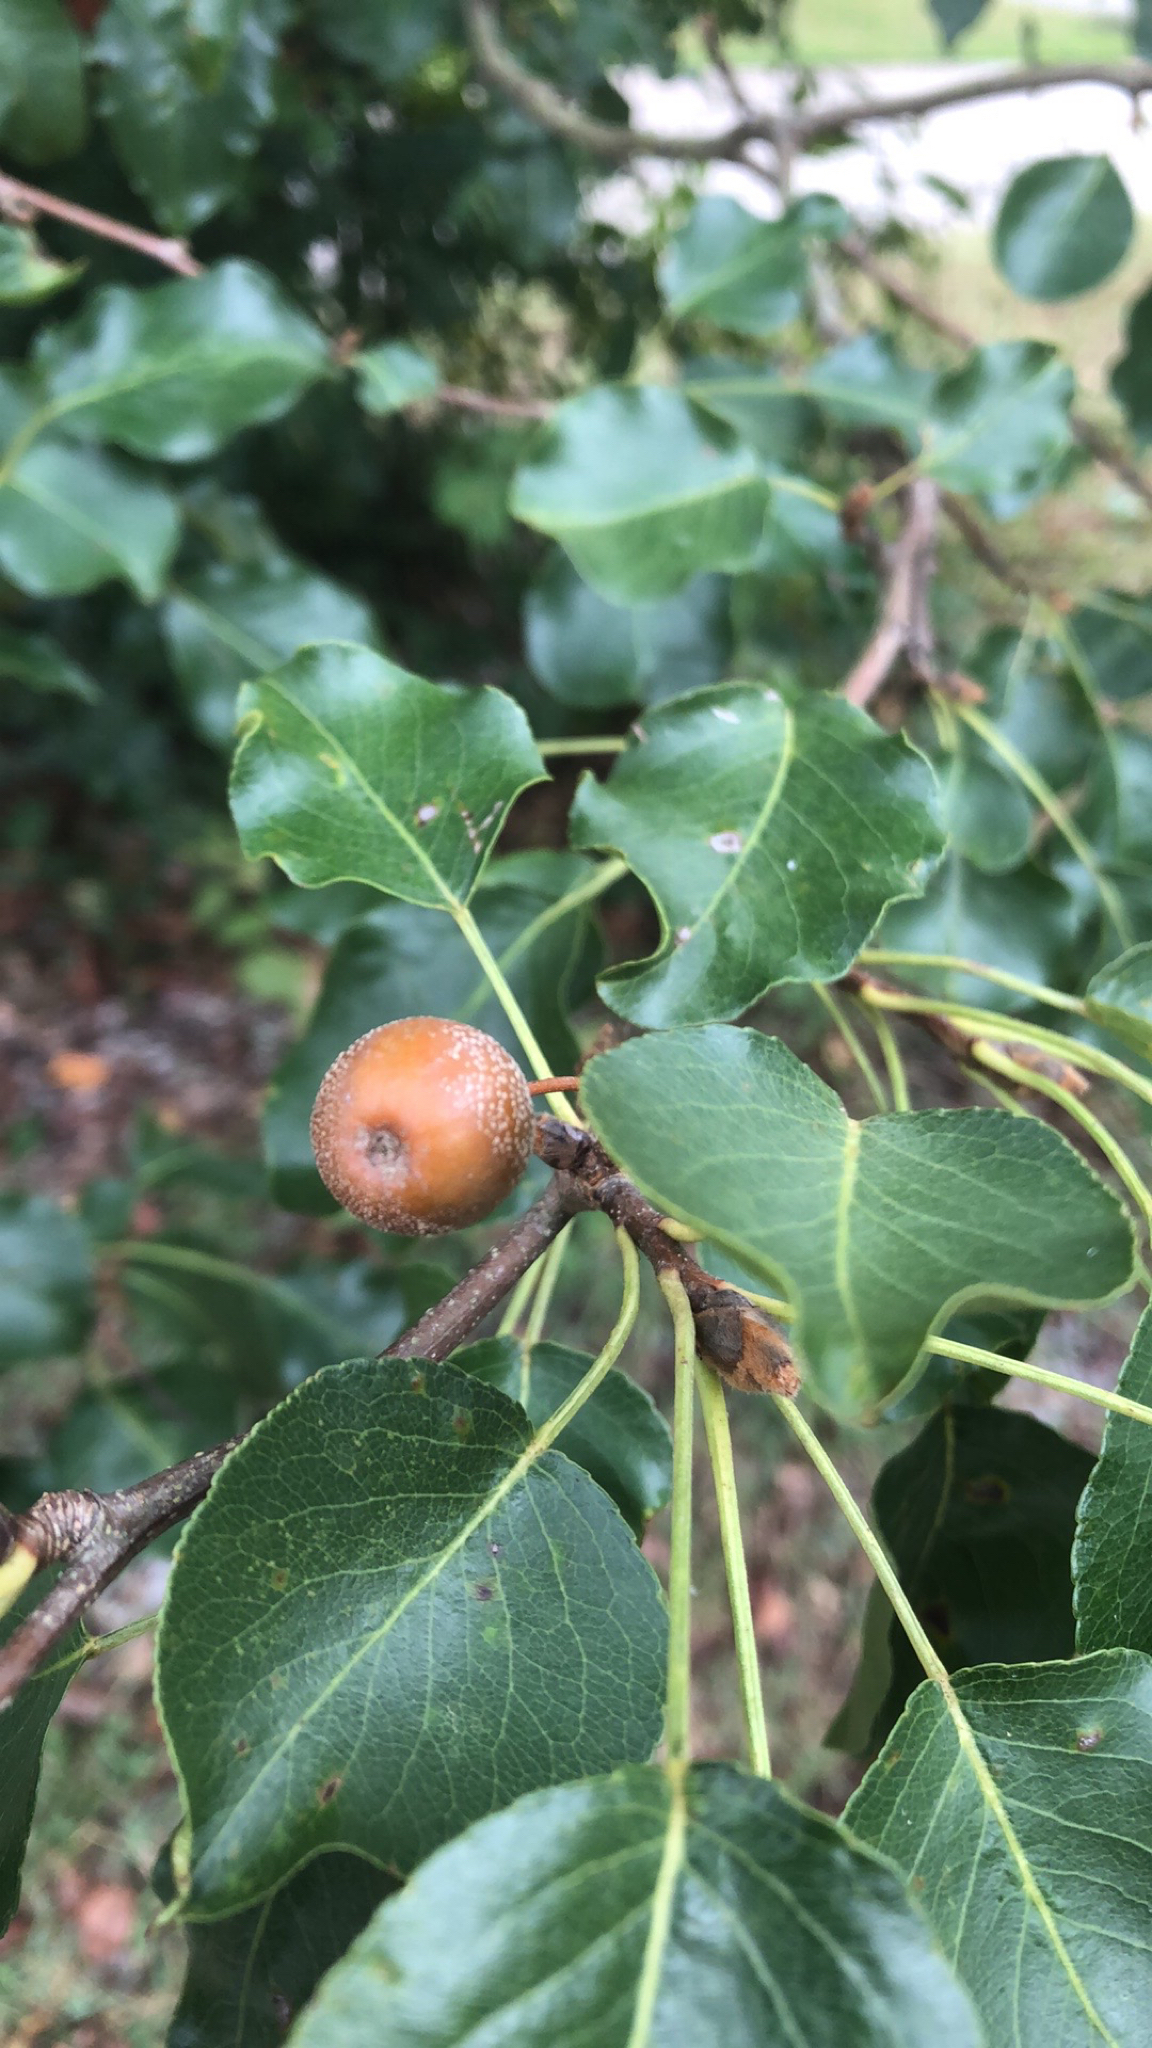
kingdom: Plantae
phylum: Tracheophyta
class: Magnoliopsida
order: Rosales
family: Rosaceae
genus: Pyrus
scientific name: Pyrus calleryana
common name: Callery pear
